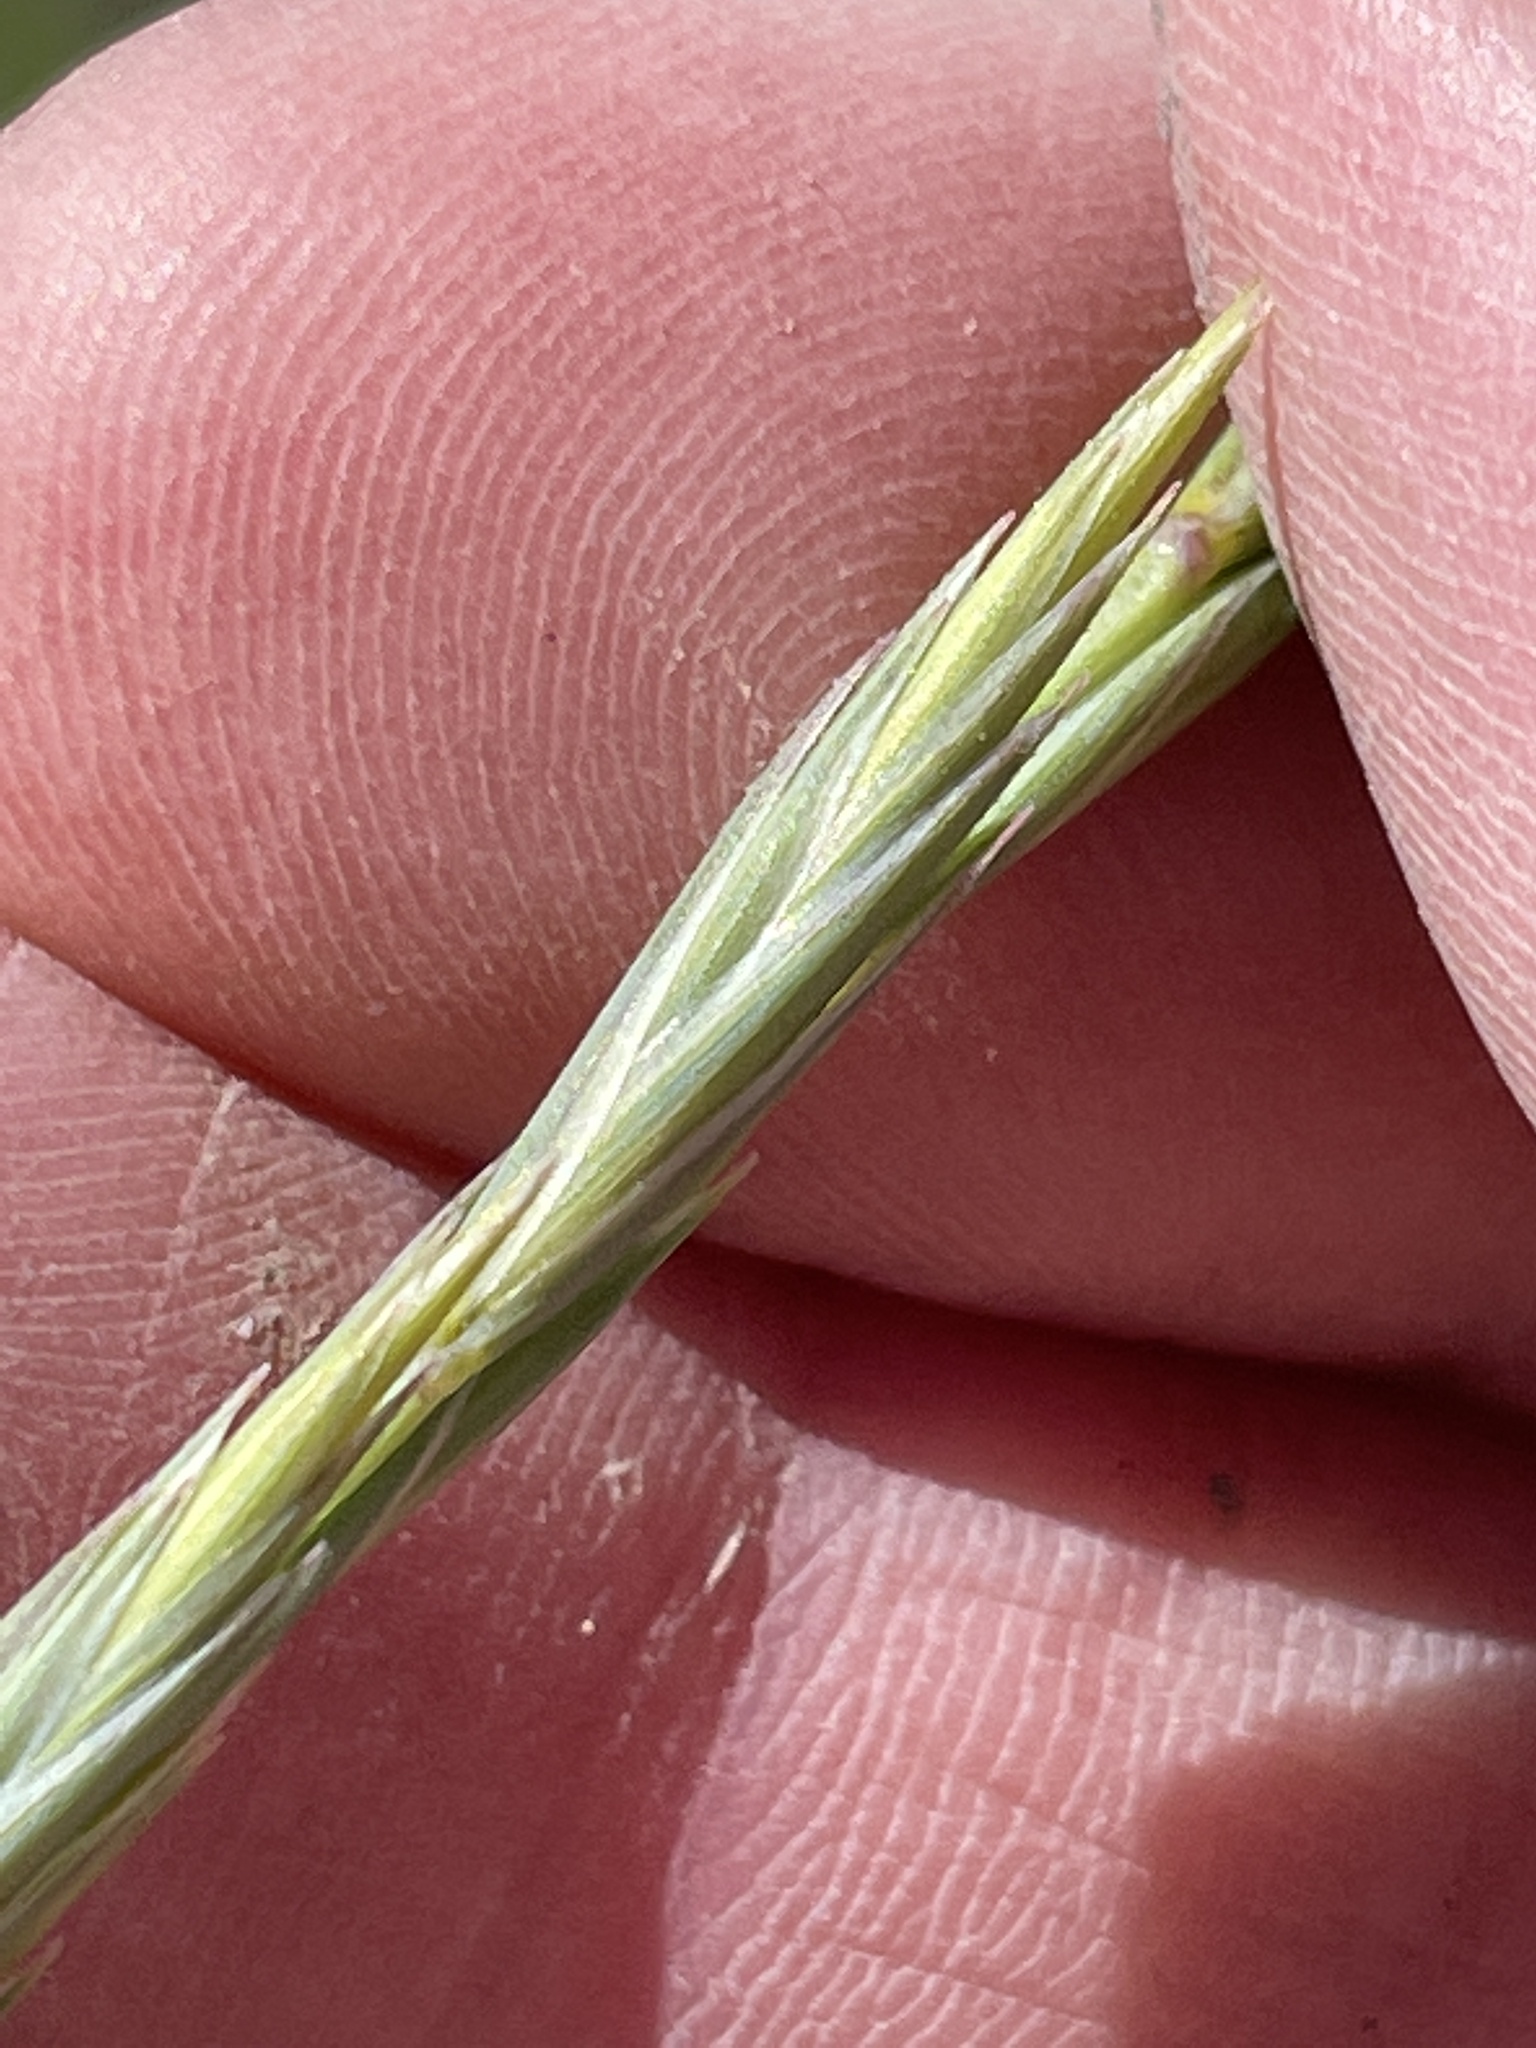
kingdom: Plantae
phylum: Tracheophyta
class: Liliopsida
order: Poales
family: Poaceae
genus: Elymus
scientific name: Elymus smithii
